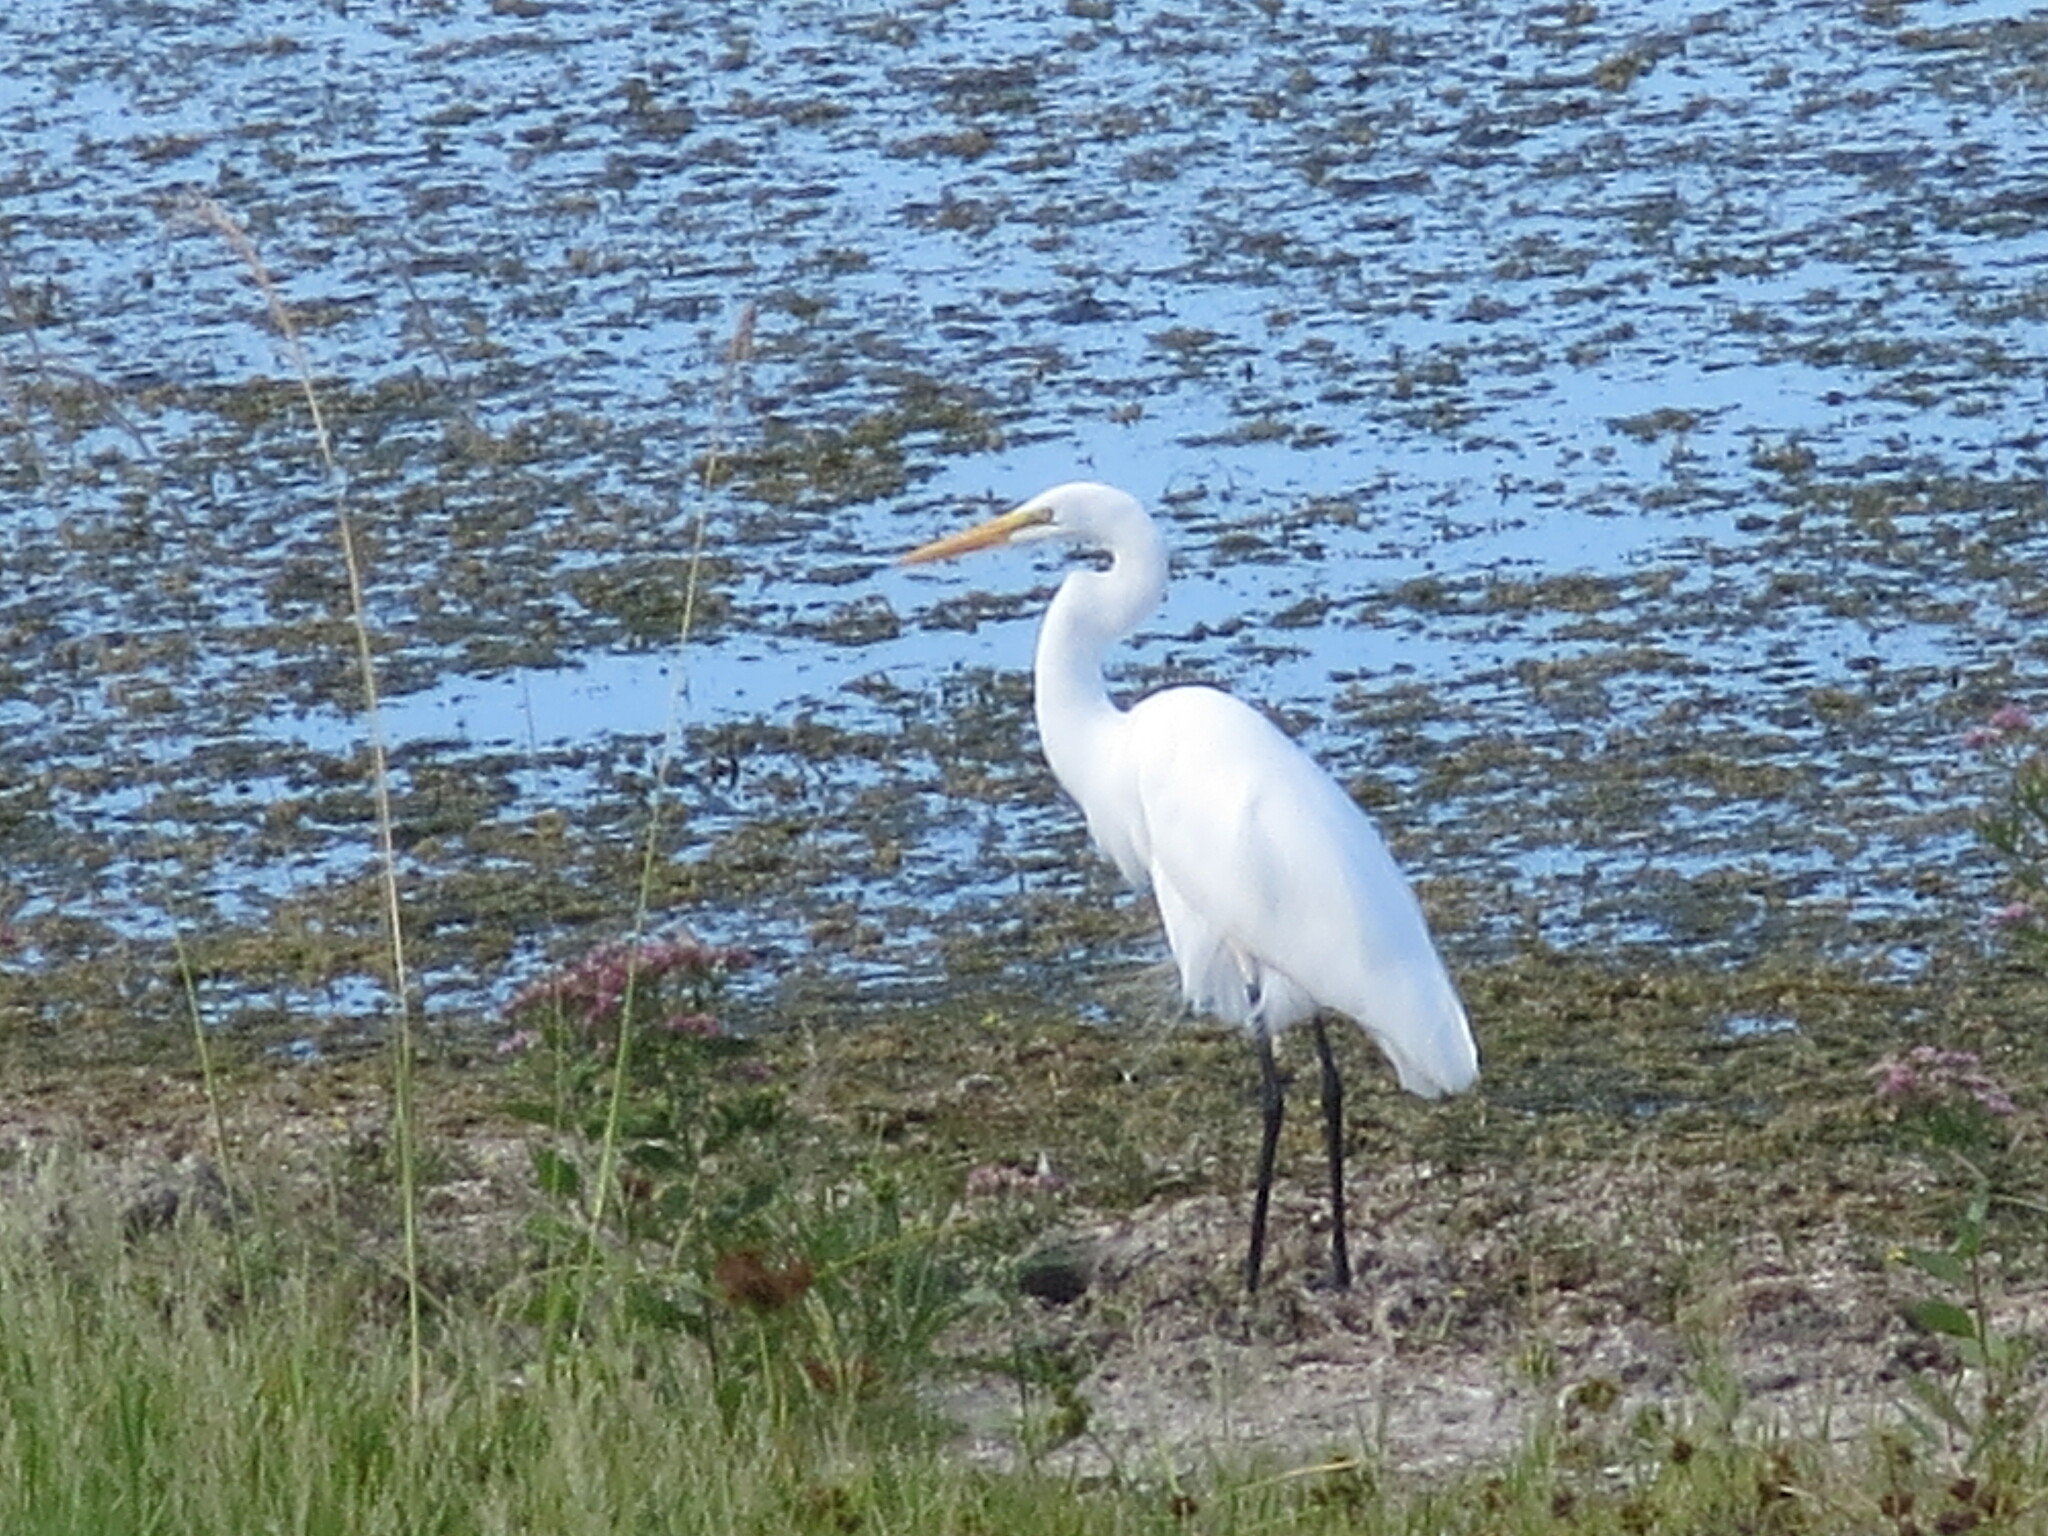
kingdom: Animalia
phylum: Chordata
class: Aves
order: Pelecaniformes
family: Ardeidae
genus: Ardea
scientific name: Ardea alba
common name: Great egret
